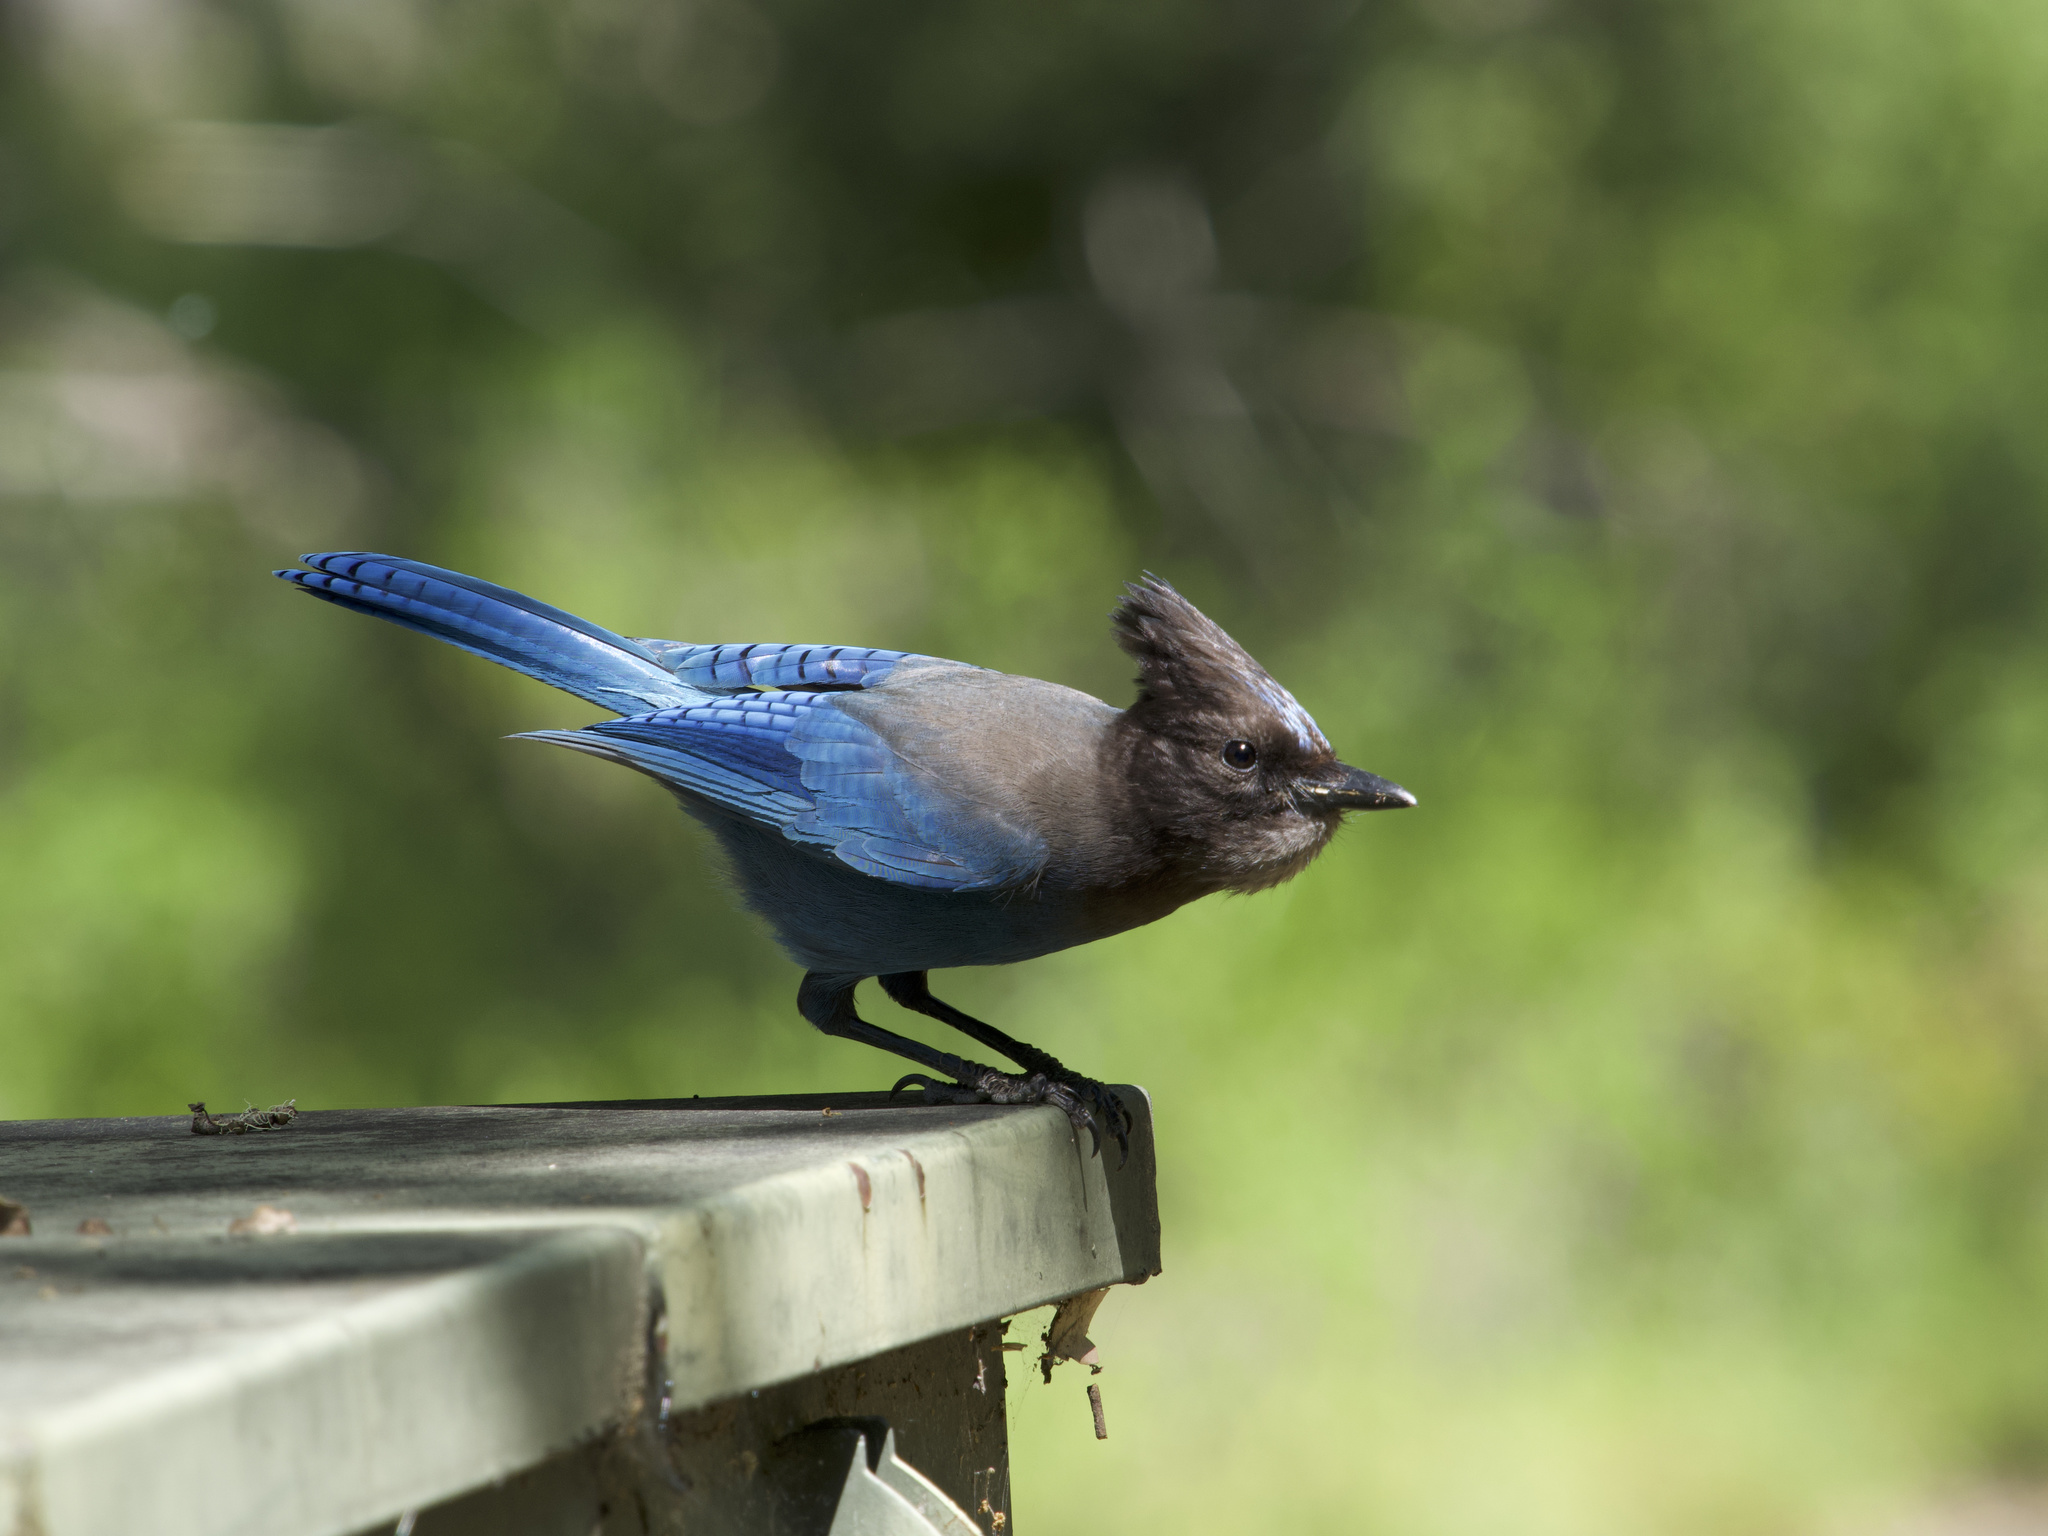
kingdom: Animalia
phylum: Chordata
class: Aves
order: Passeriformes
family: Corvidae
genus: Cyanocitta
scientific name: Cyanocitta stelleri
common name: Steller's jay
